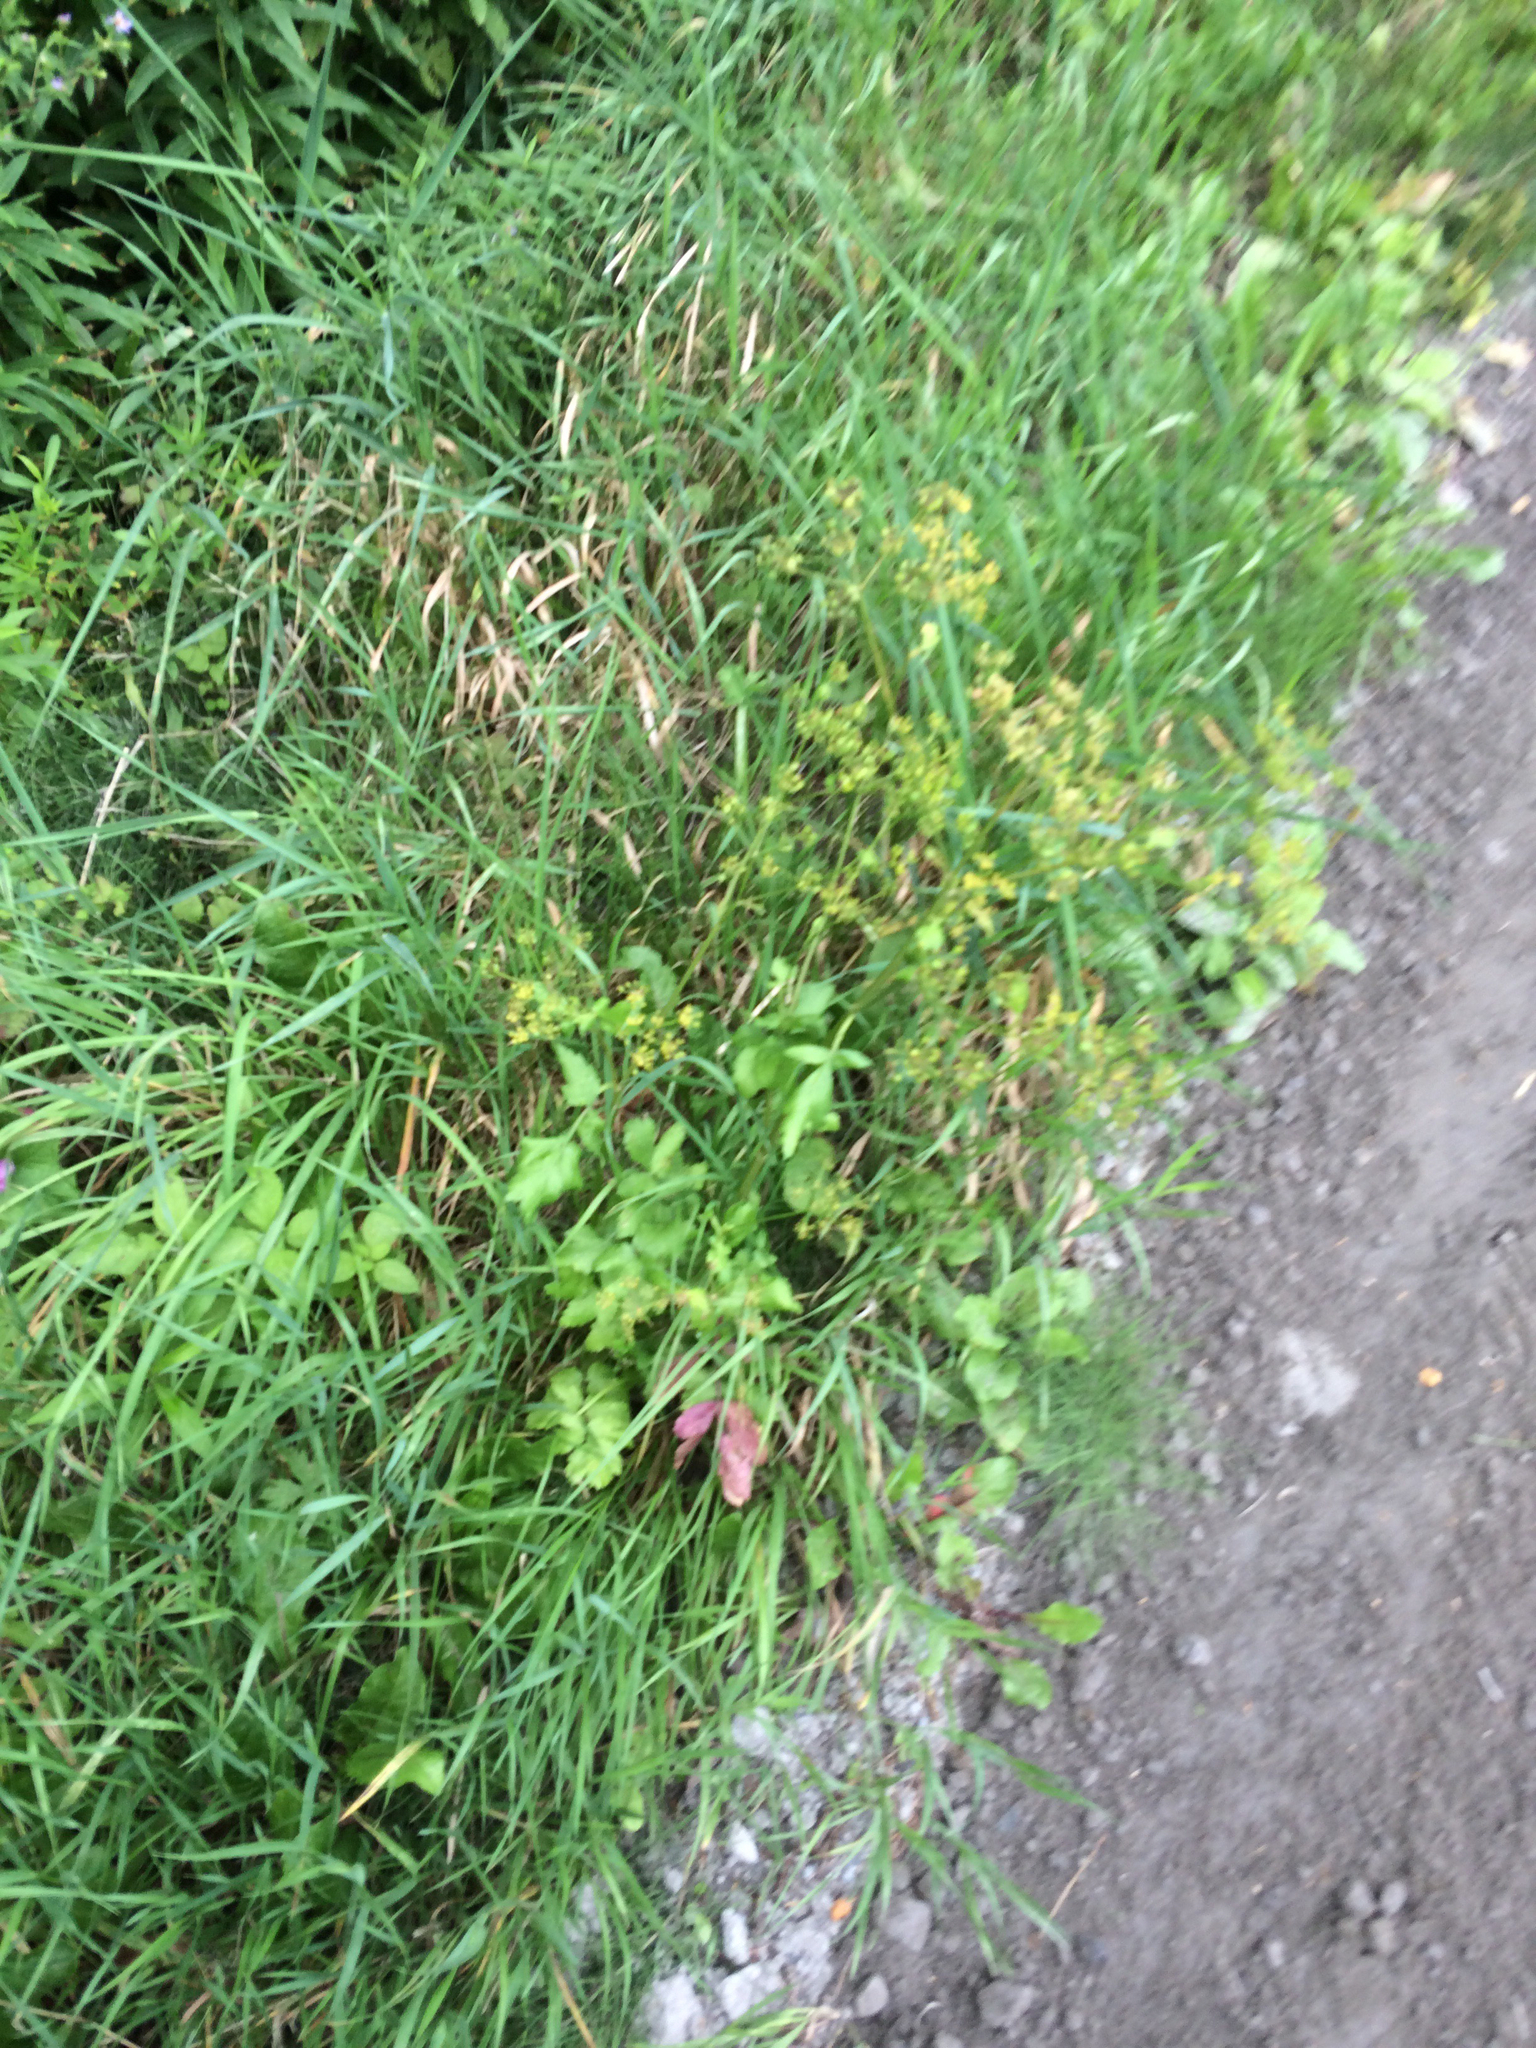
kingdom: Plantae
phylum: Tracheophyta
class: Magnoliopsida
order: Apiales
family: Apiaceae
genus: Pastinaca
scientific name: Pastinaca sativa
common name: Wild parsnip
